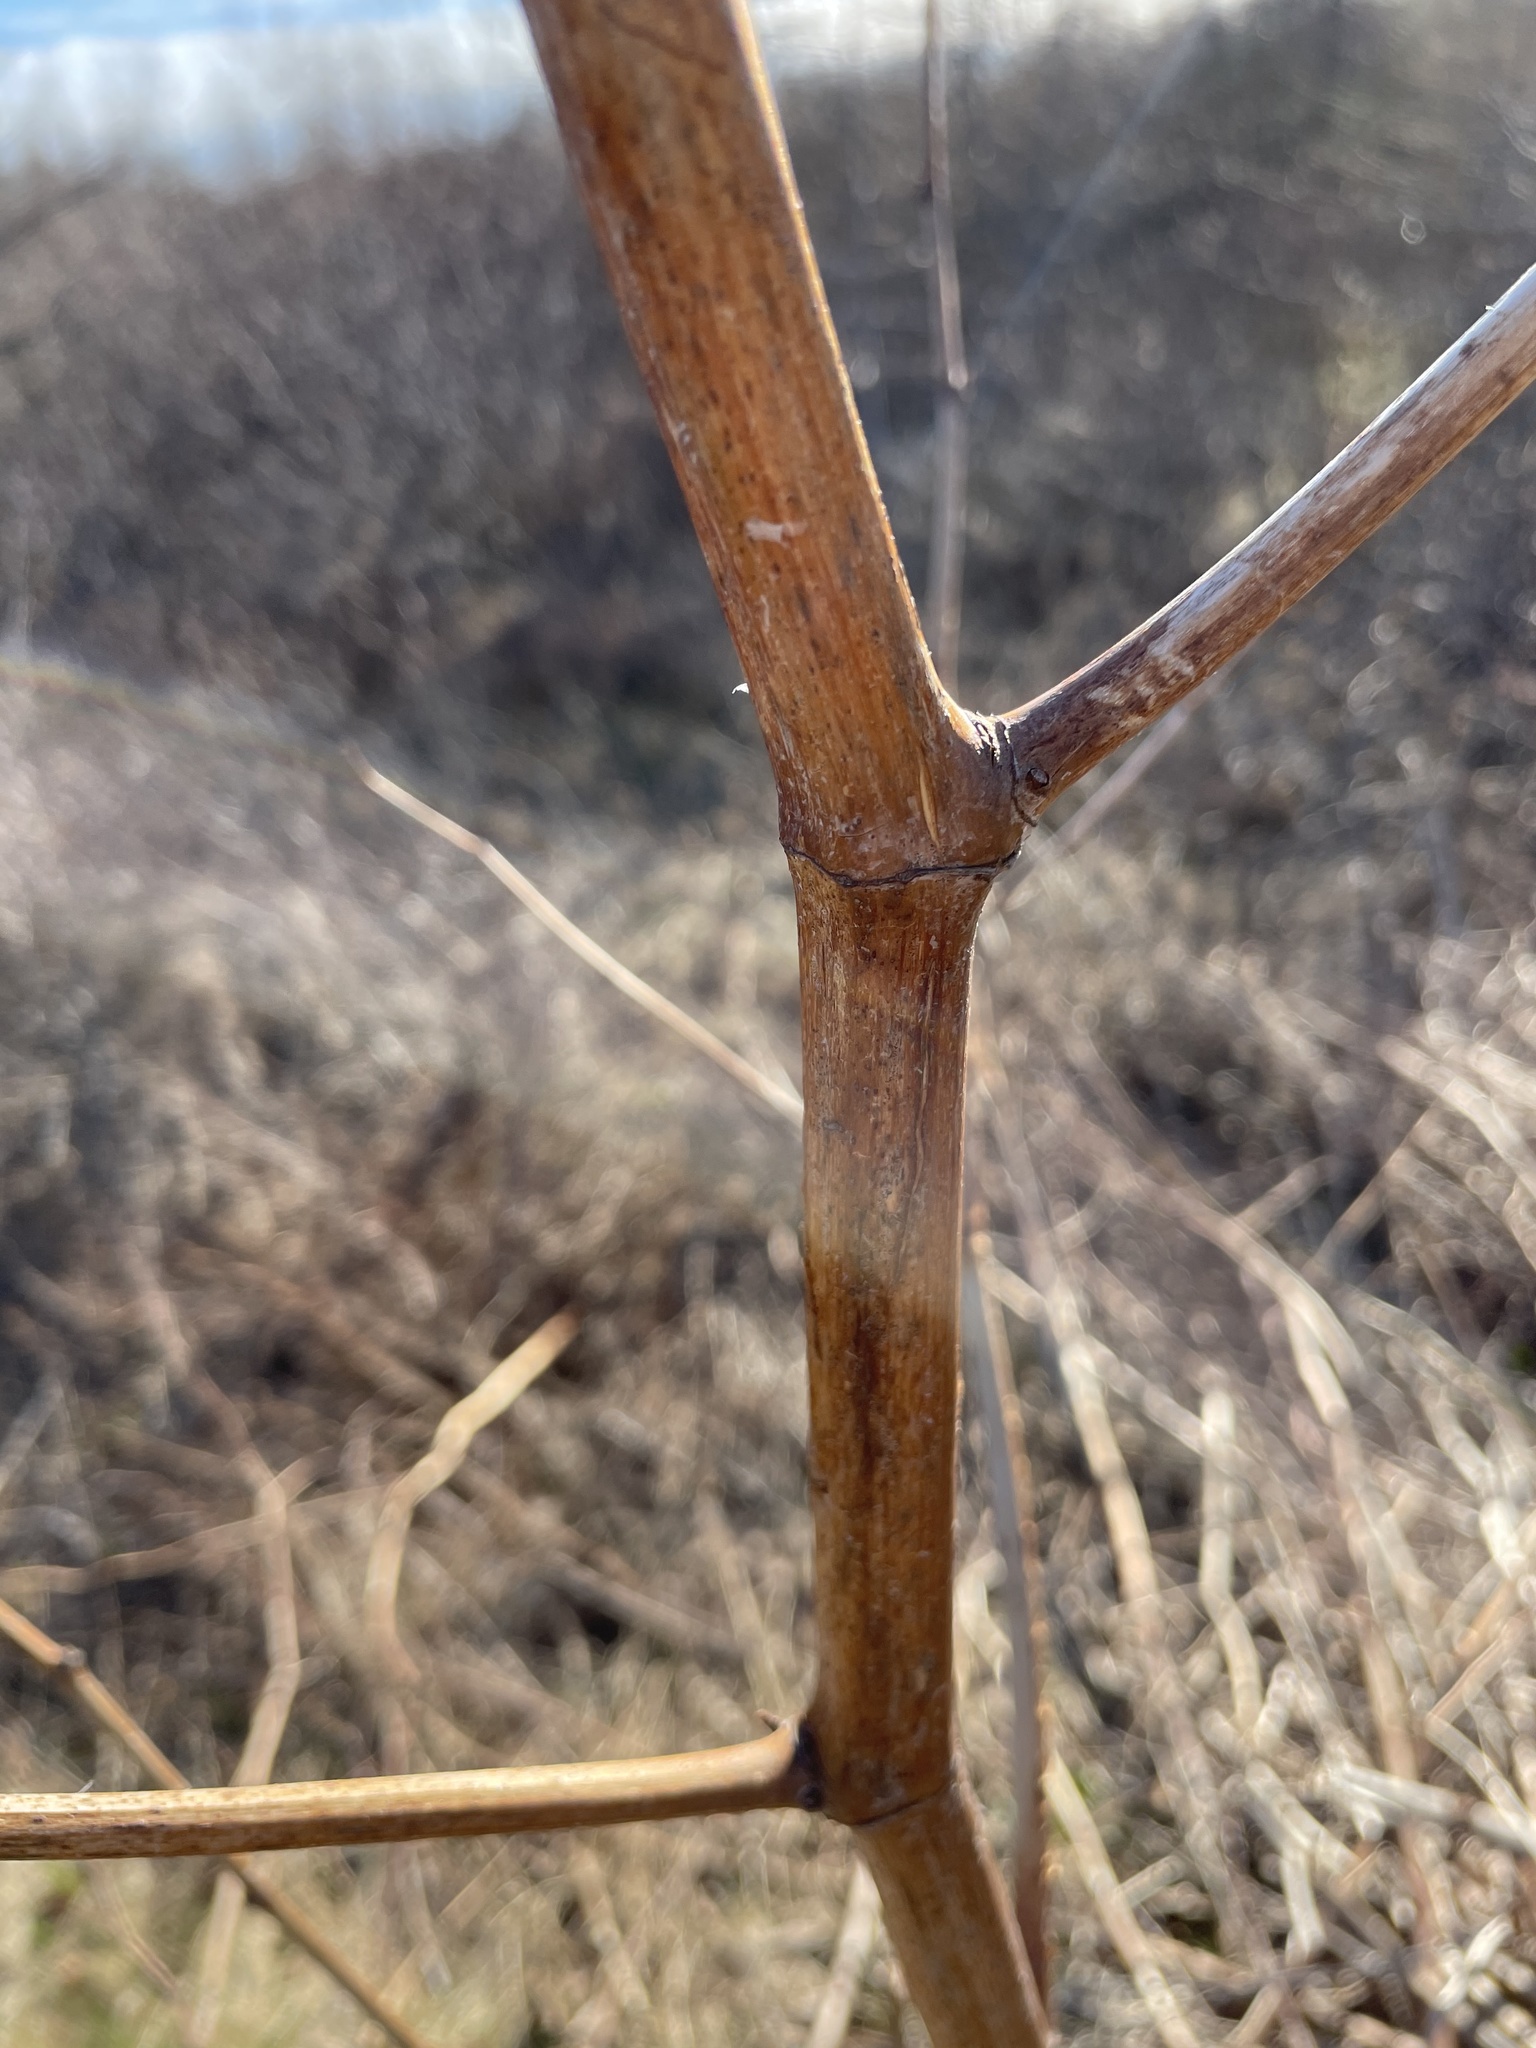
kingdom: Plantae
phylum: Tracheophyta
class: Magnoliopsida
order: Caryophyllales
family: Polygonaceae
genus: Reynoutria
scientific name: Reynoutria japonica
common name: Japanese knotweed
